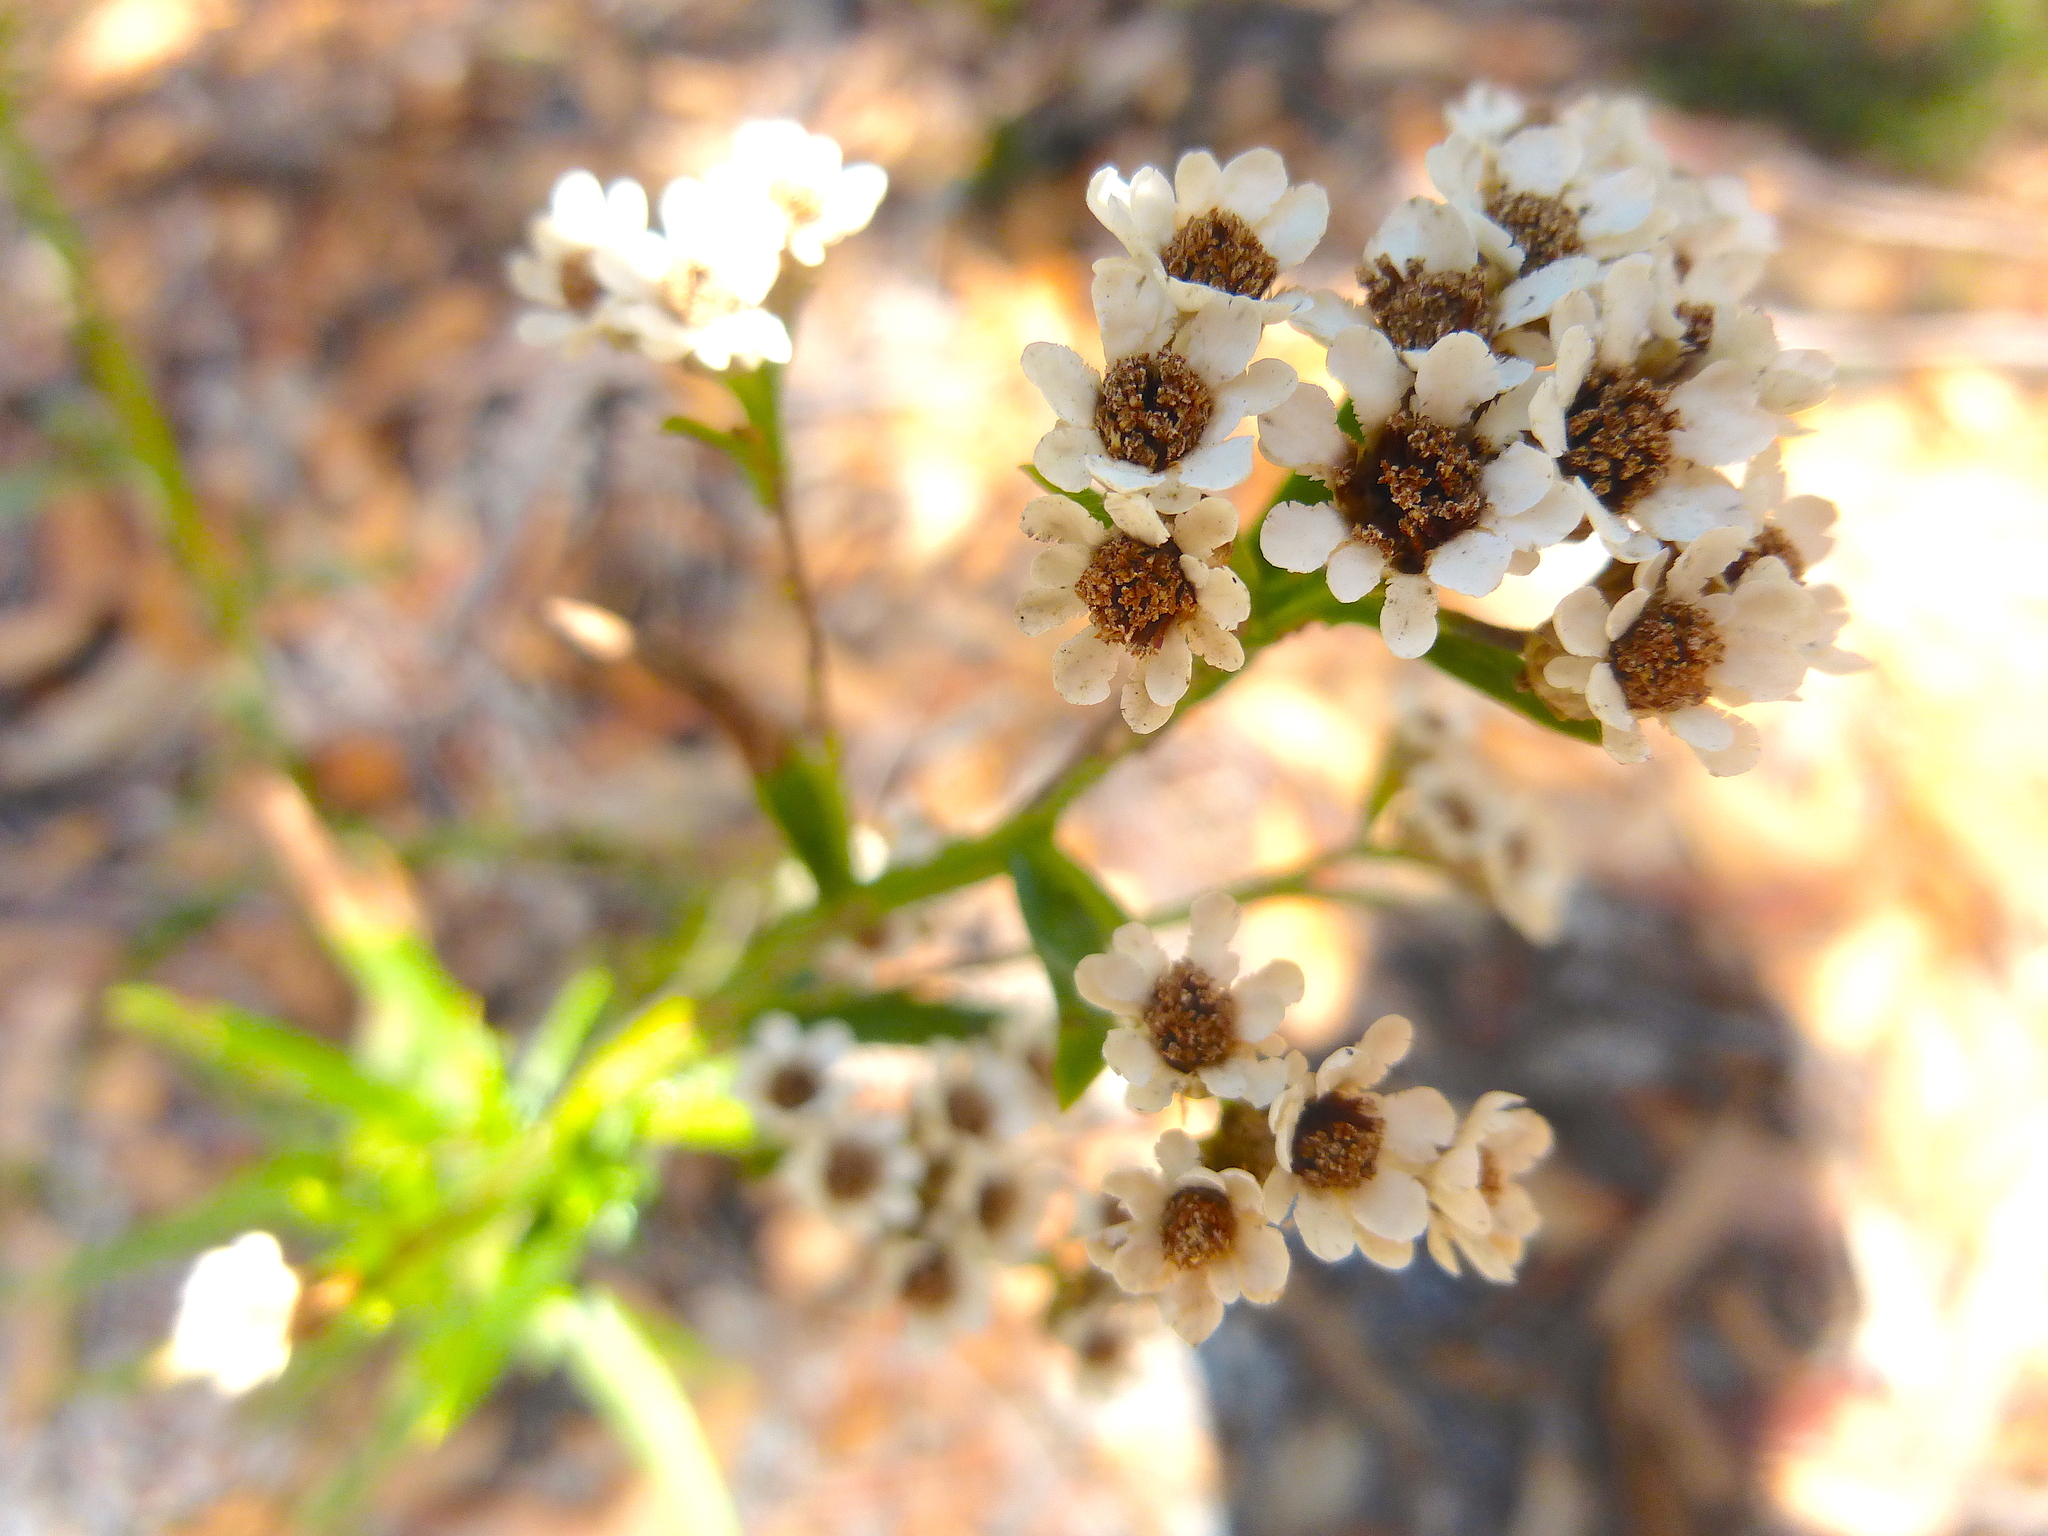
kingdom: Plantae
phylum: Tracheophyta
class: Magnoliopsida
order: Asterales
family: Asteraceae
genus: Ixodia
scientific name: Ixodia achillaeoides
